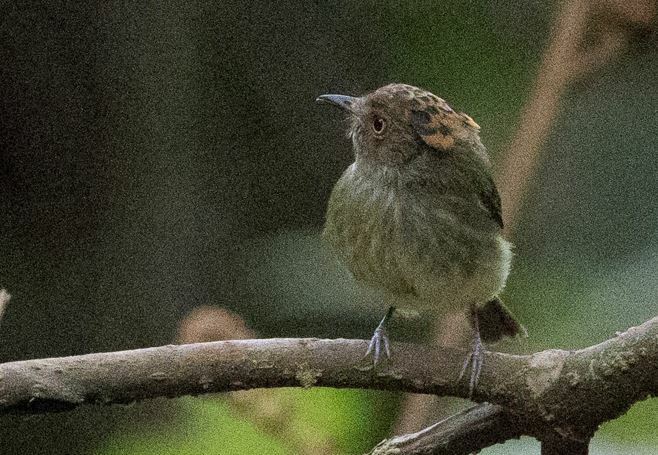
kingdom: Animalia
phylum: Chordata
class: Aves
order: Passeriformes
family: Tyrannidae
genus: Lophotriccus
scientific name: Lophotriccus pileatus
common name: Scale-crested pygmy-tyrant
